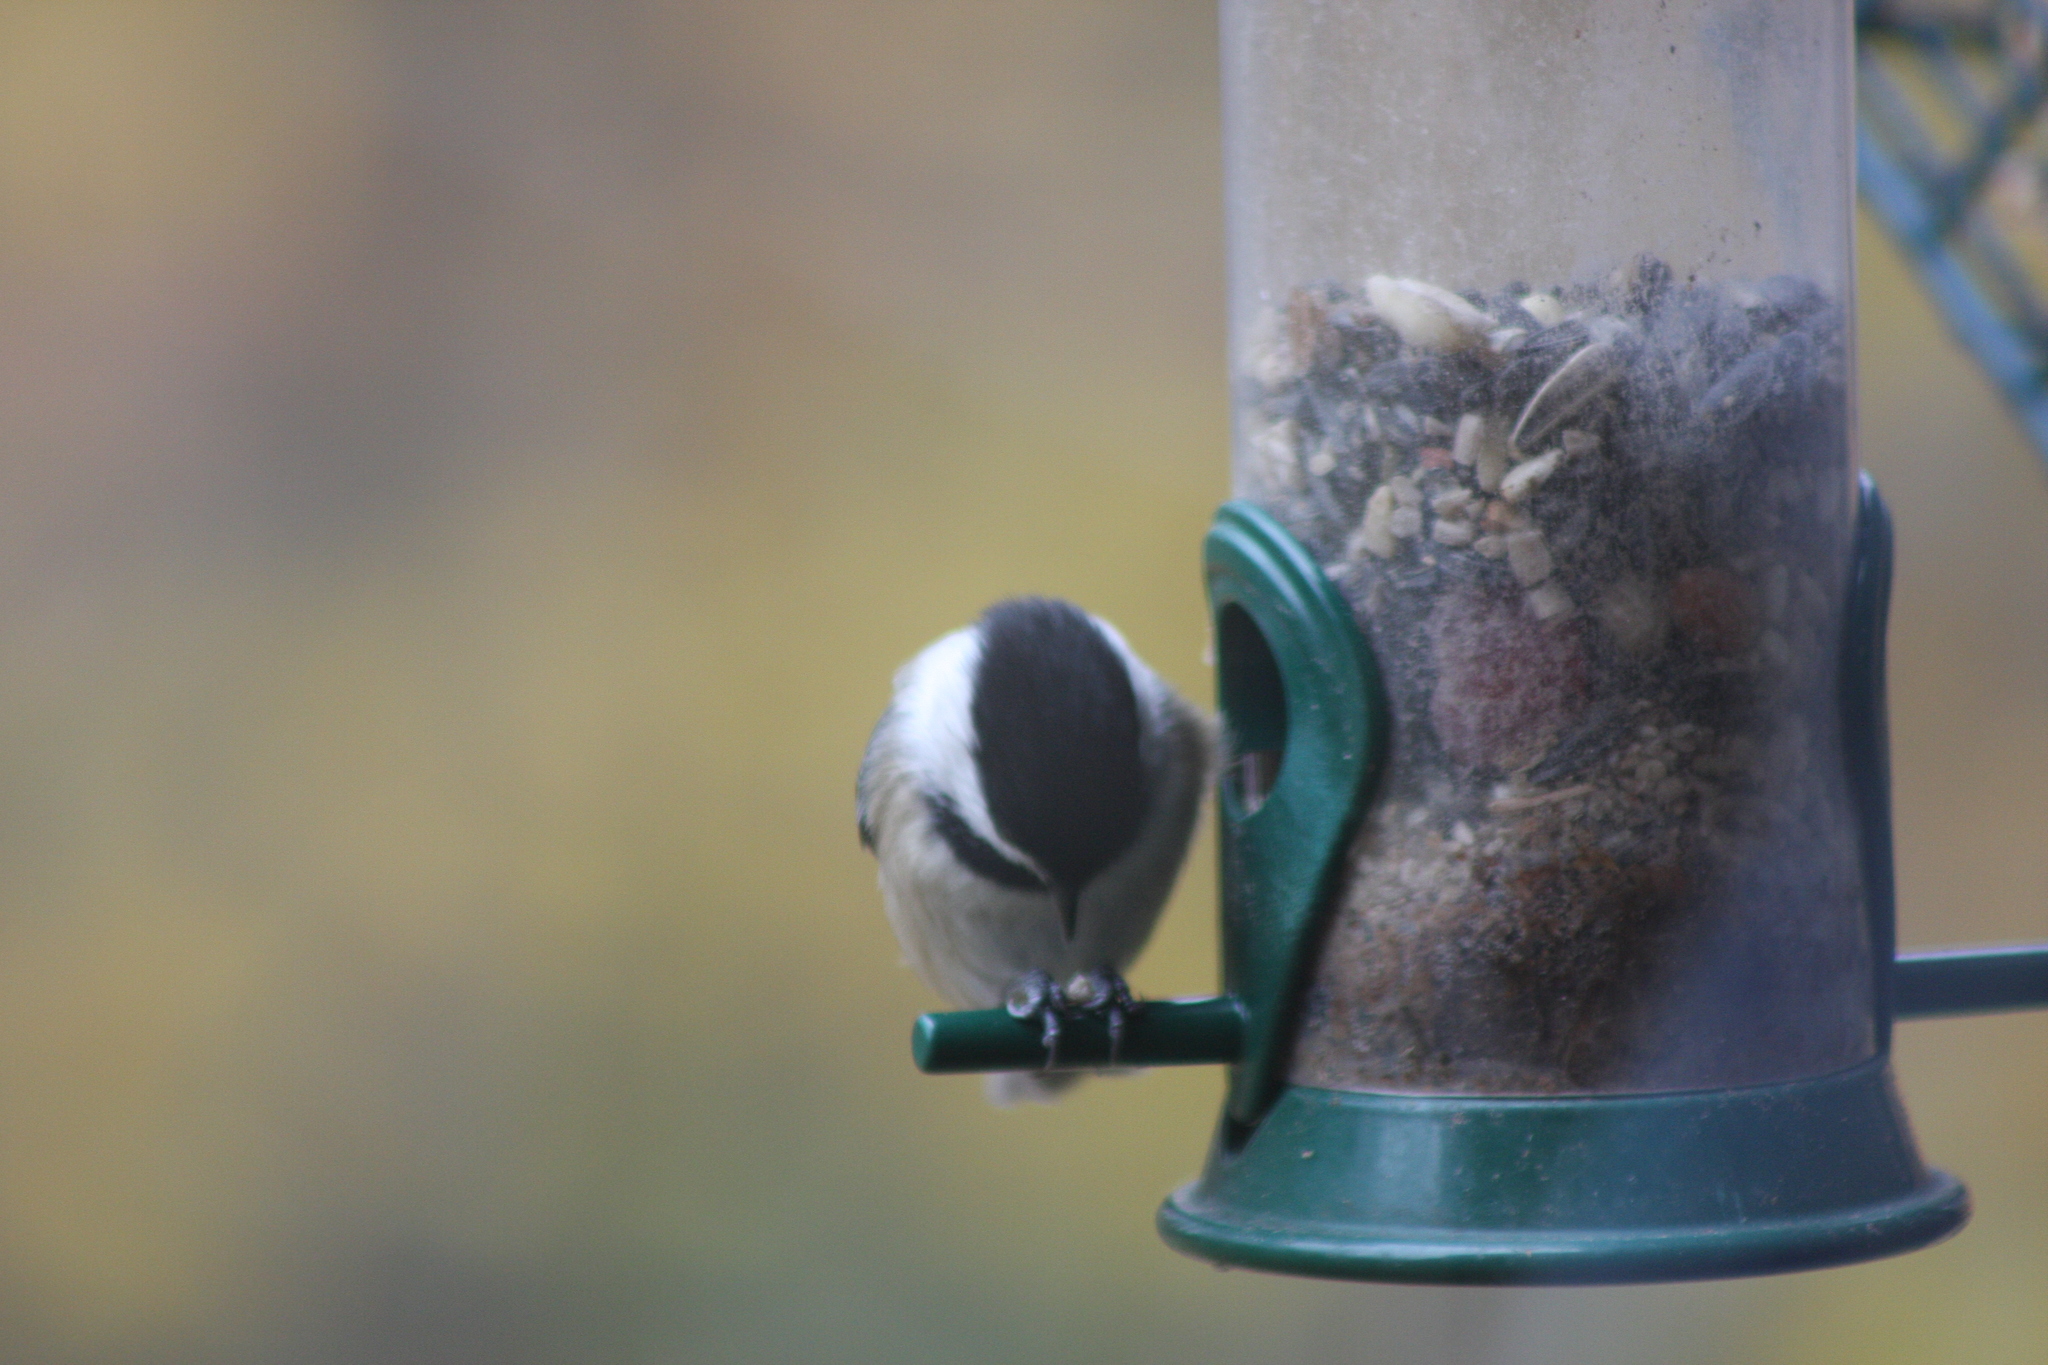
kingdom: Animalia
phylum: Chordata
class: Aves
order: Passeriformes
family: Paridae
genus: Poecile
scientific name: Poecile atricapillus
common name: Black-capped chickadee
